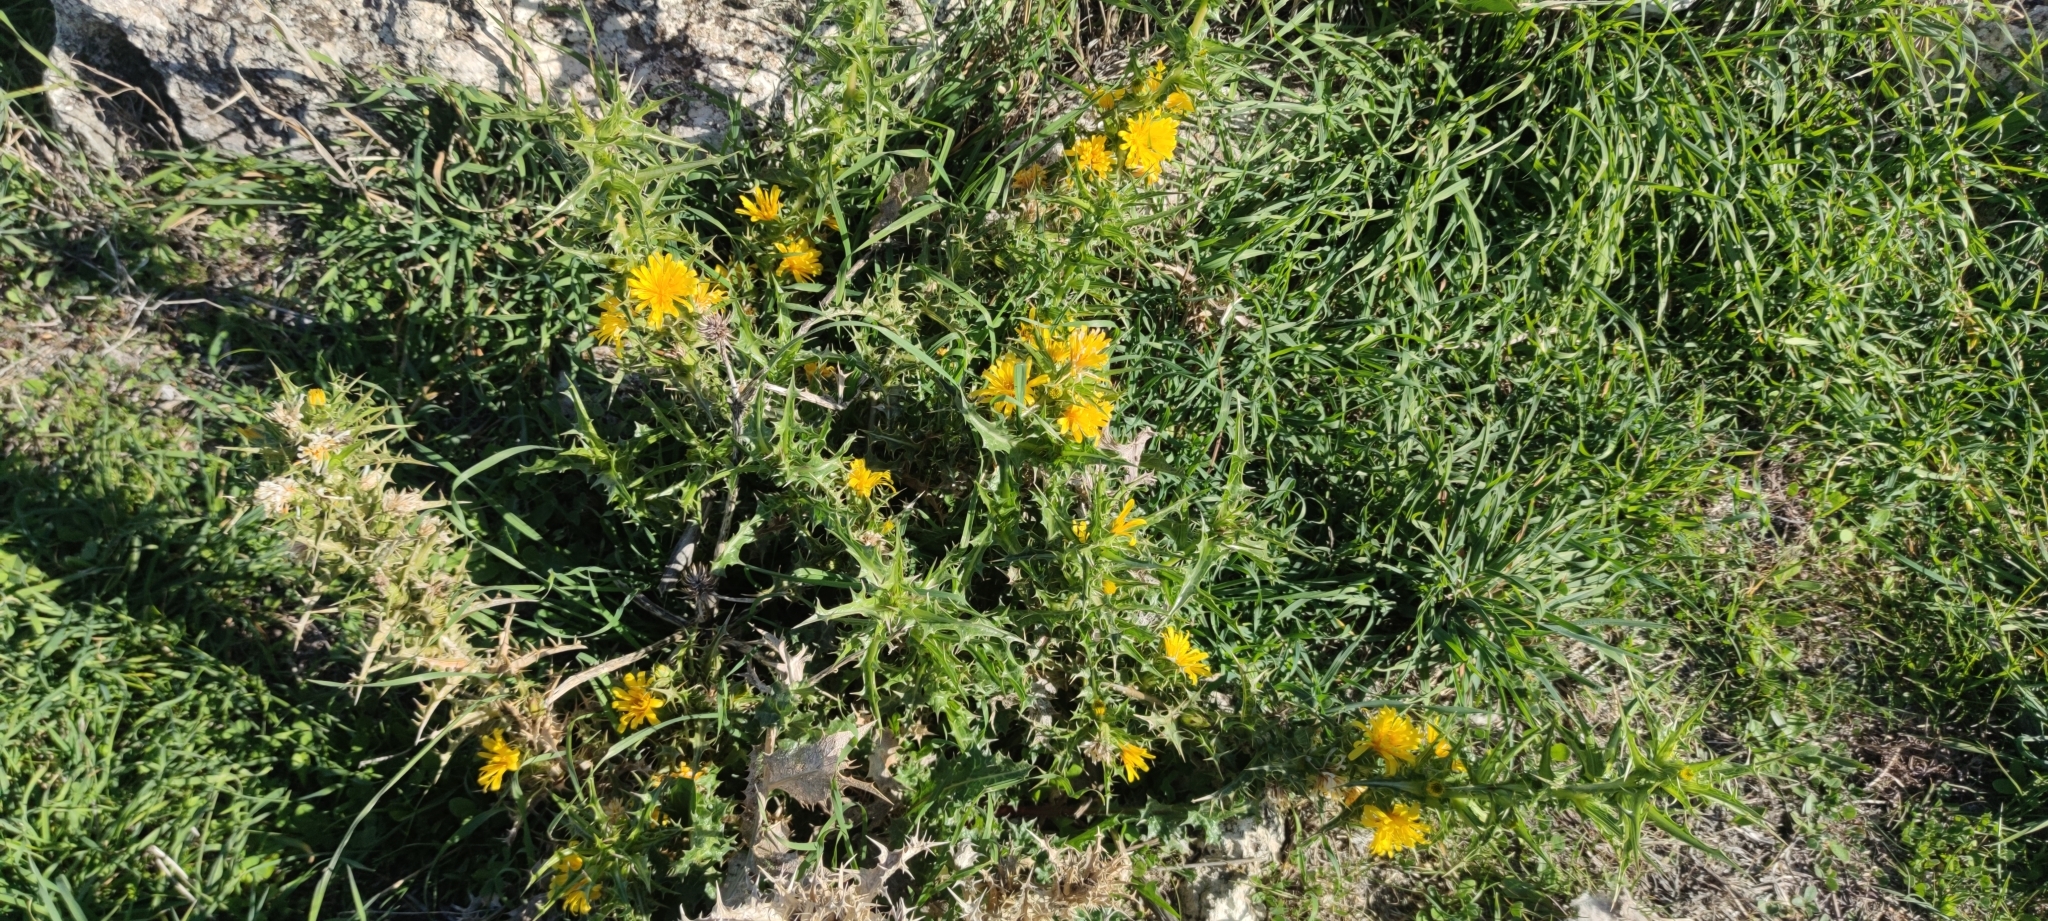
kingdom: Plantae
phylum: Tracheophyta
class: Magnoliopsida
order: Asterales
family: Asteraceae
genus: Scolymus
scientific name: Scolymus hispanicus
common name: Golden thistle
